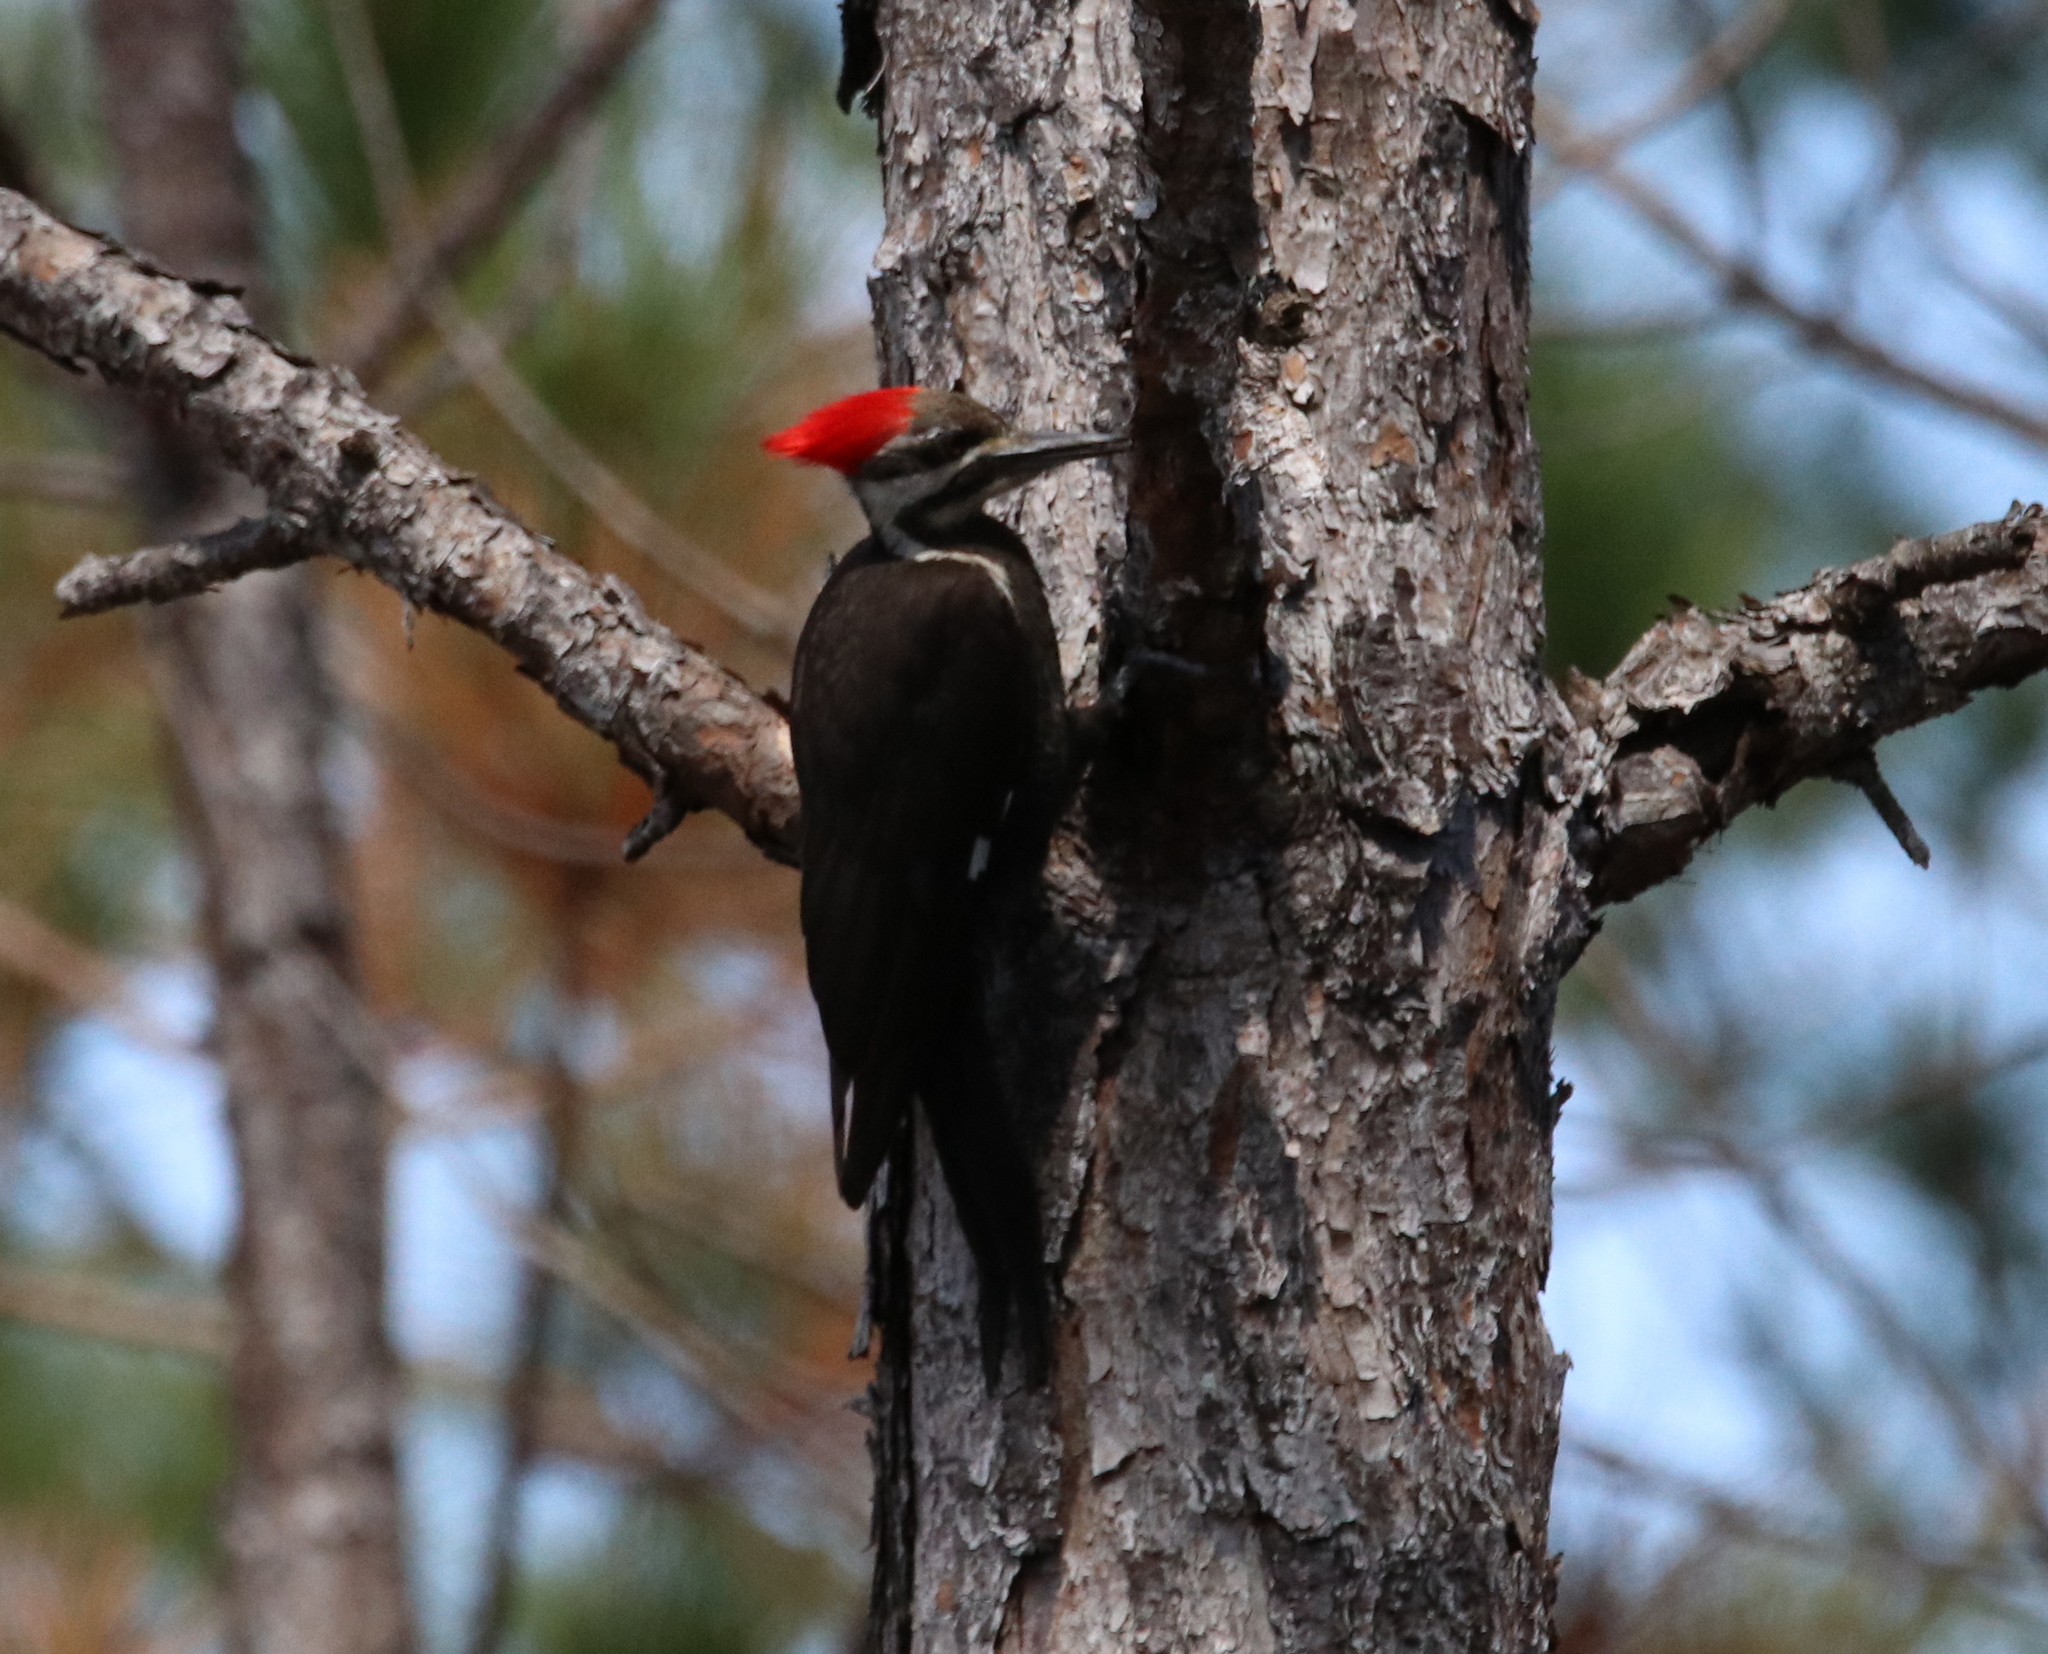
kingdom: Animalia
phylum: Chordata
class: Aves
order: Piciformes
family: Picidae
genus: Dryocopus
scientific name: Dryocopus pileatus
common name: Pileated woodpecker
